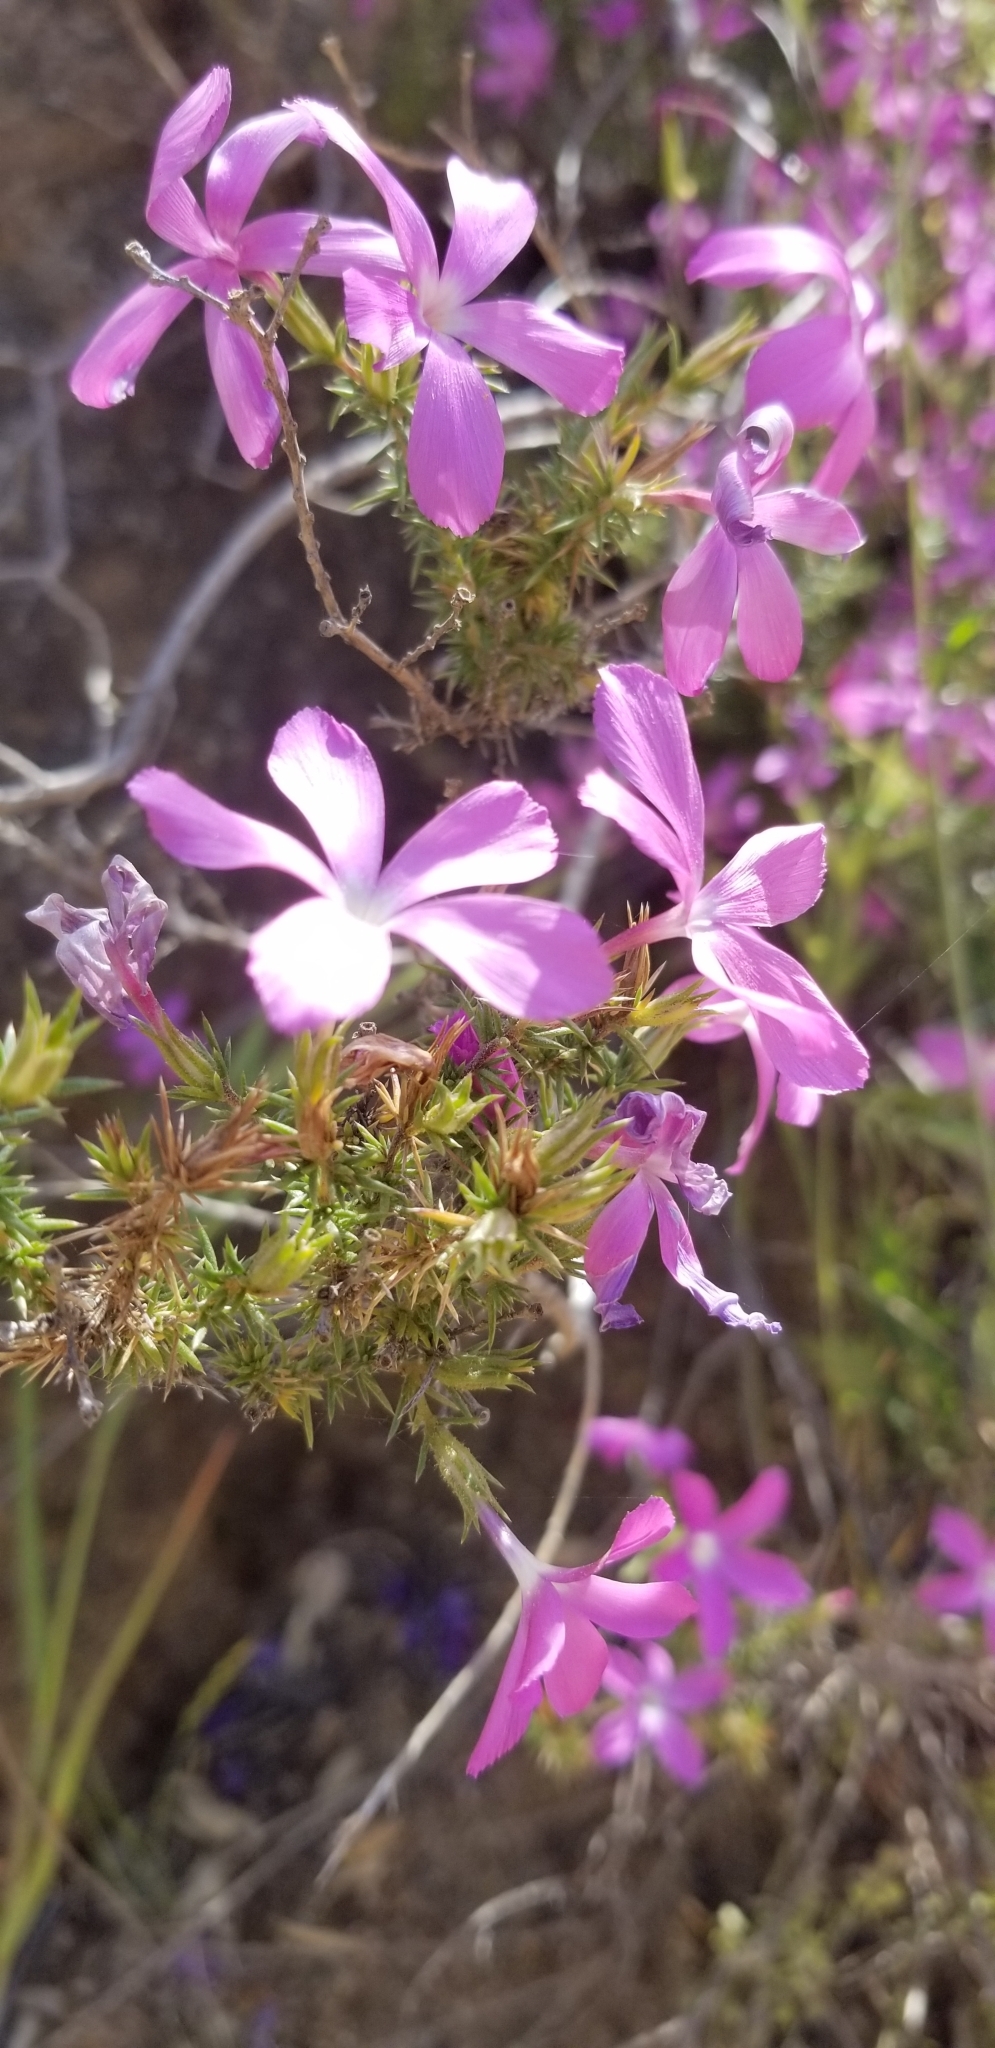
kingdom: Plantae
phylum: Tracheophyta
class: Magnoliopsida
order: Ericales
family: Polemoniaceae
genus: Linanthus
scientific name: Linanthus californicus
